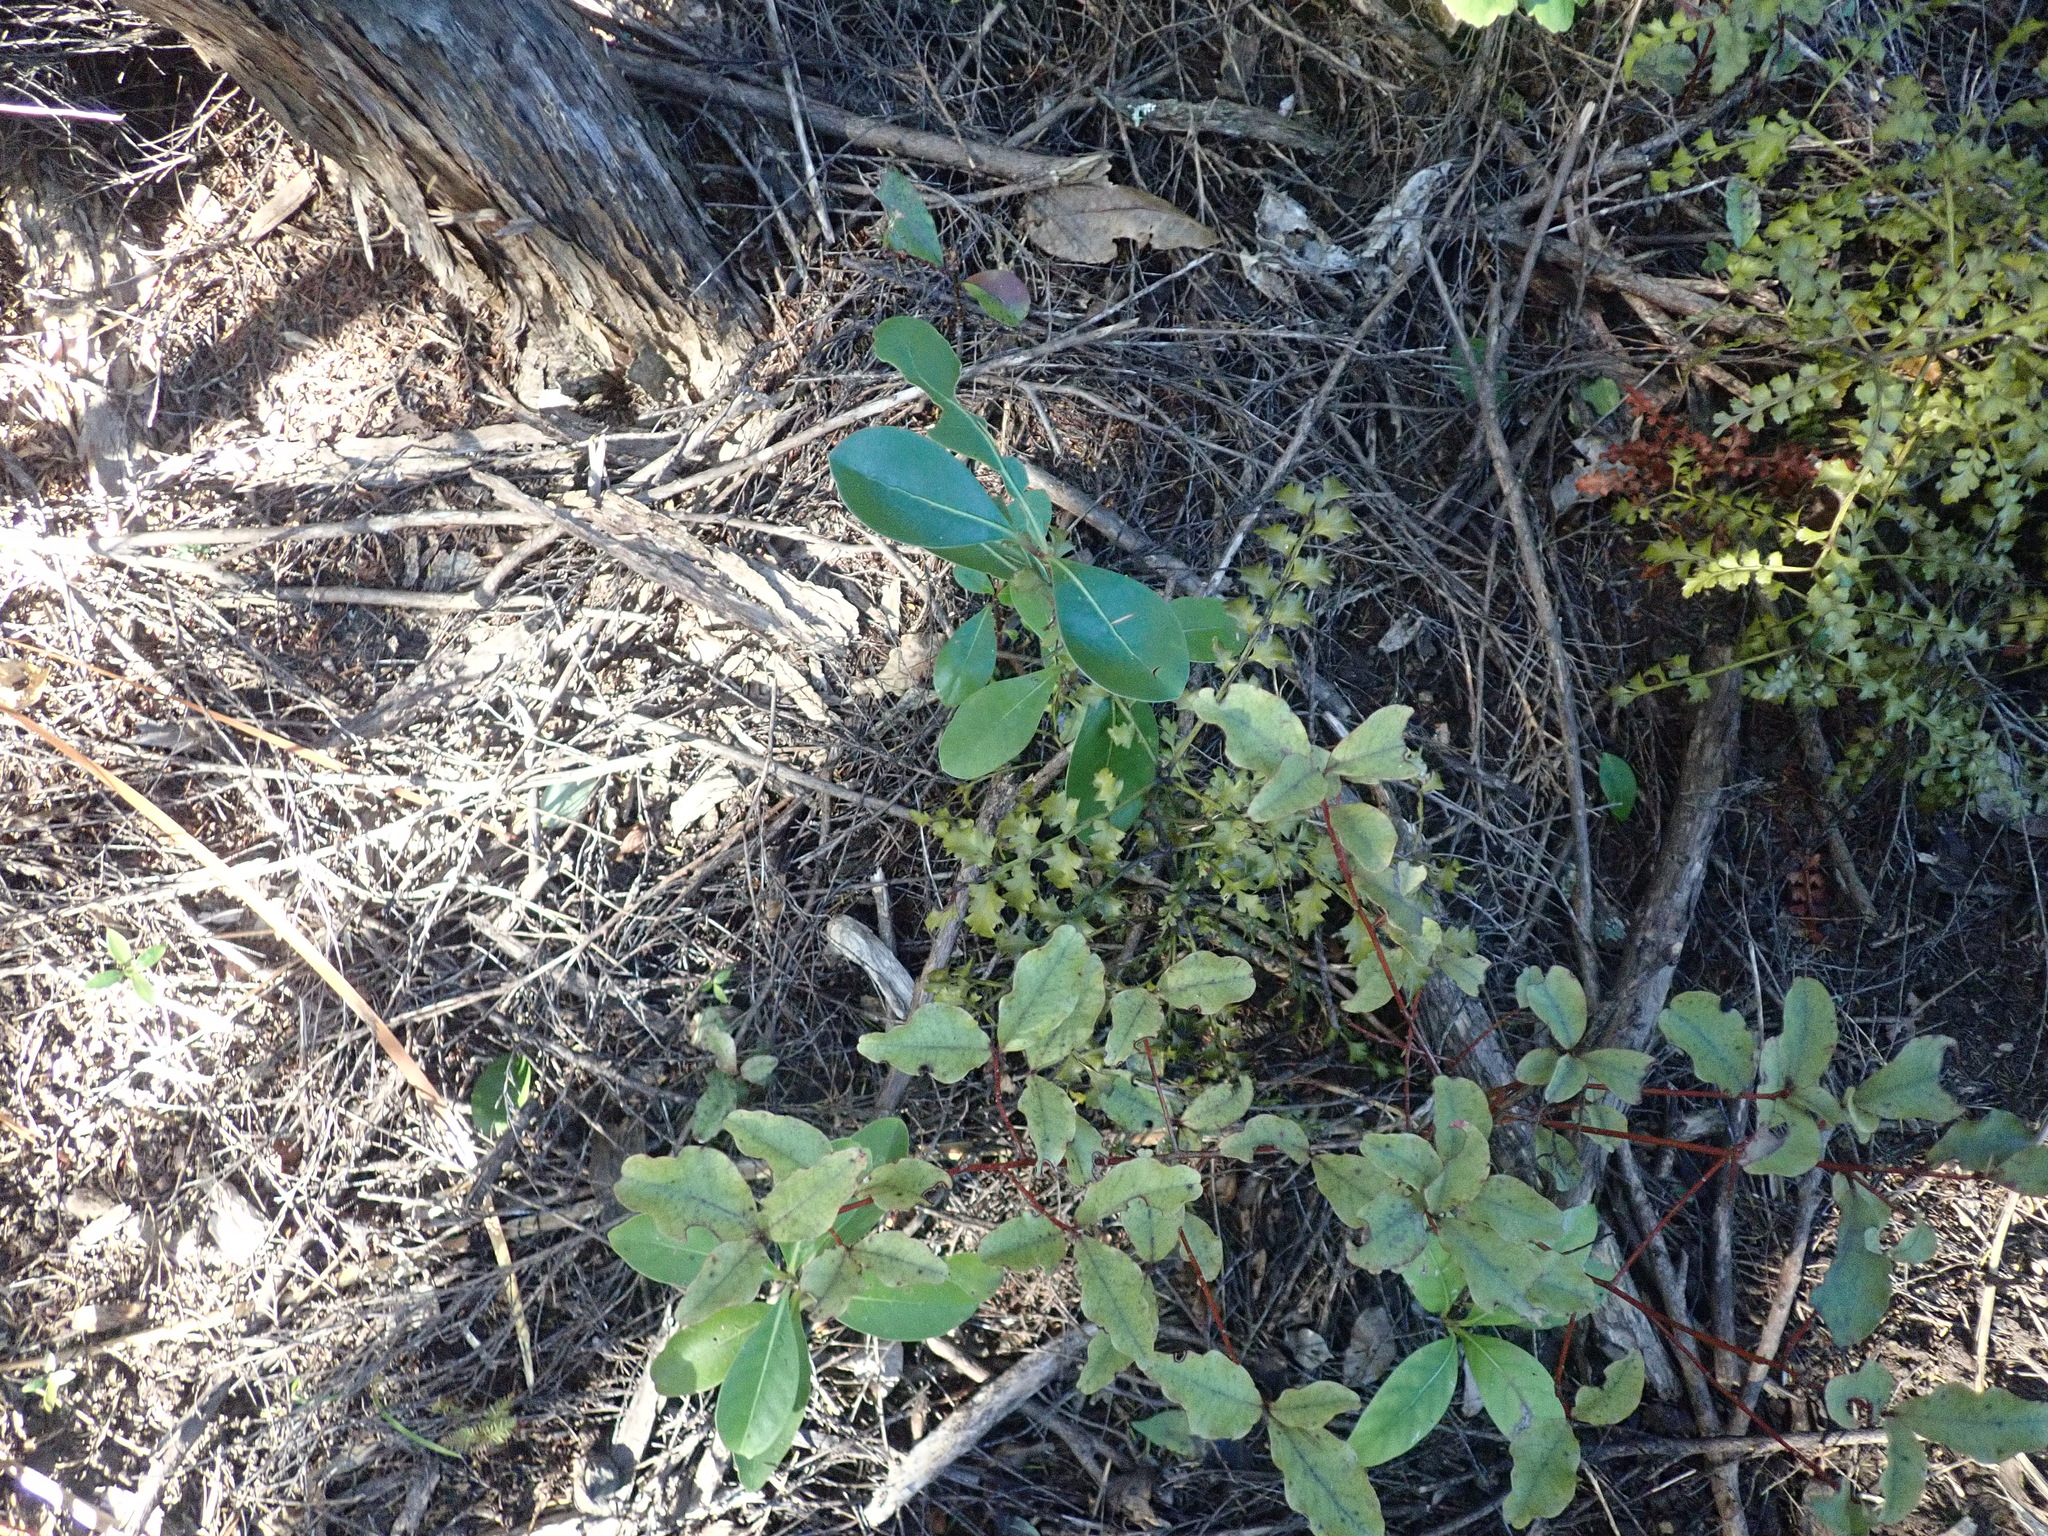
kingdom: Plantae
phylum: Tracheophyta
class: Pinopsida
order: Pinales
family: Phyllocladaceae
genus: Phyllocladus
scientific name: Phyllocladus trichomanoides
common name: Celery pine
